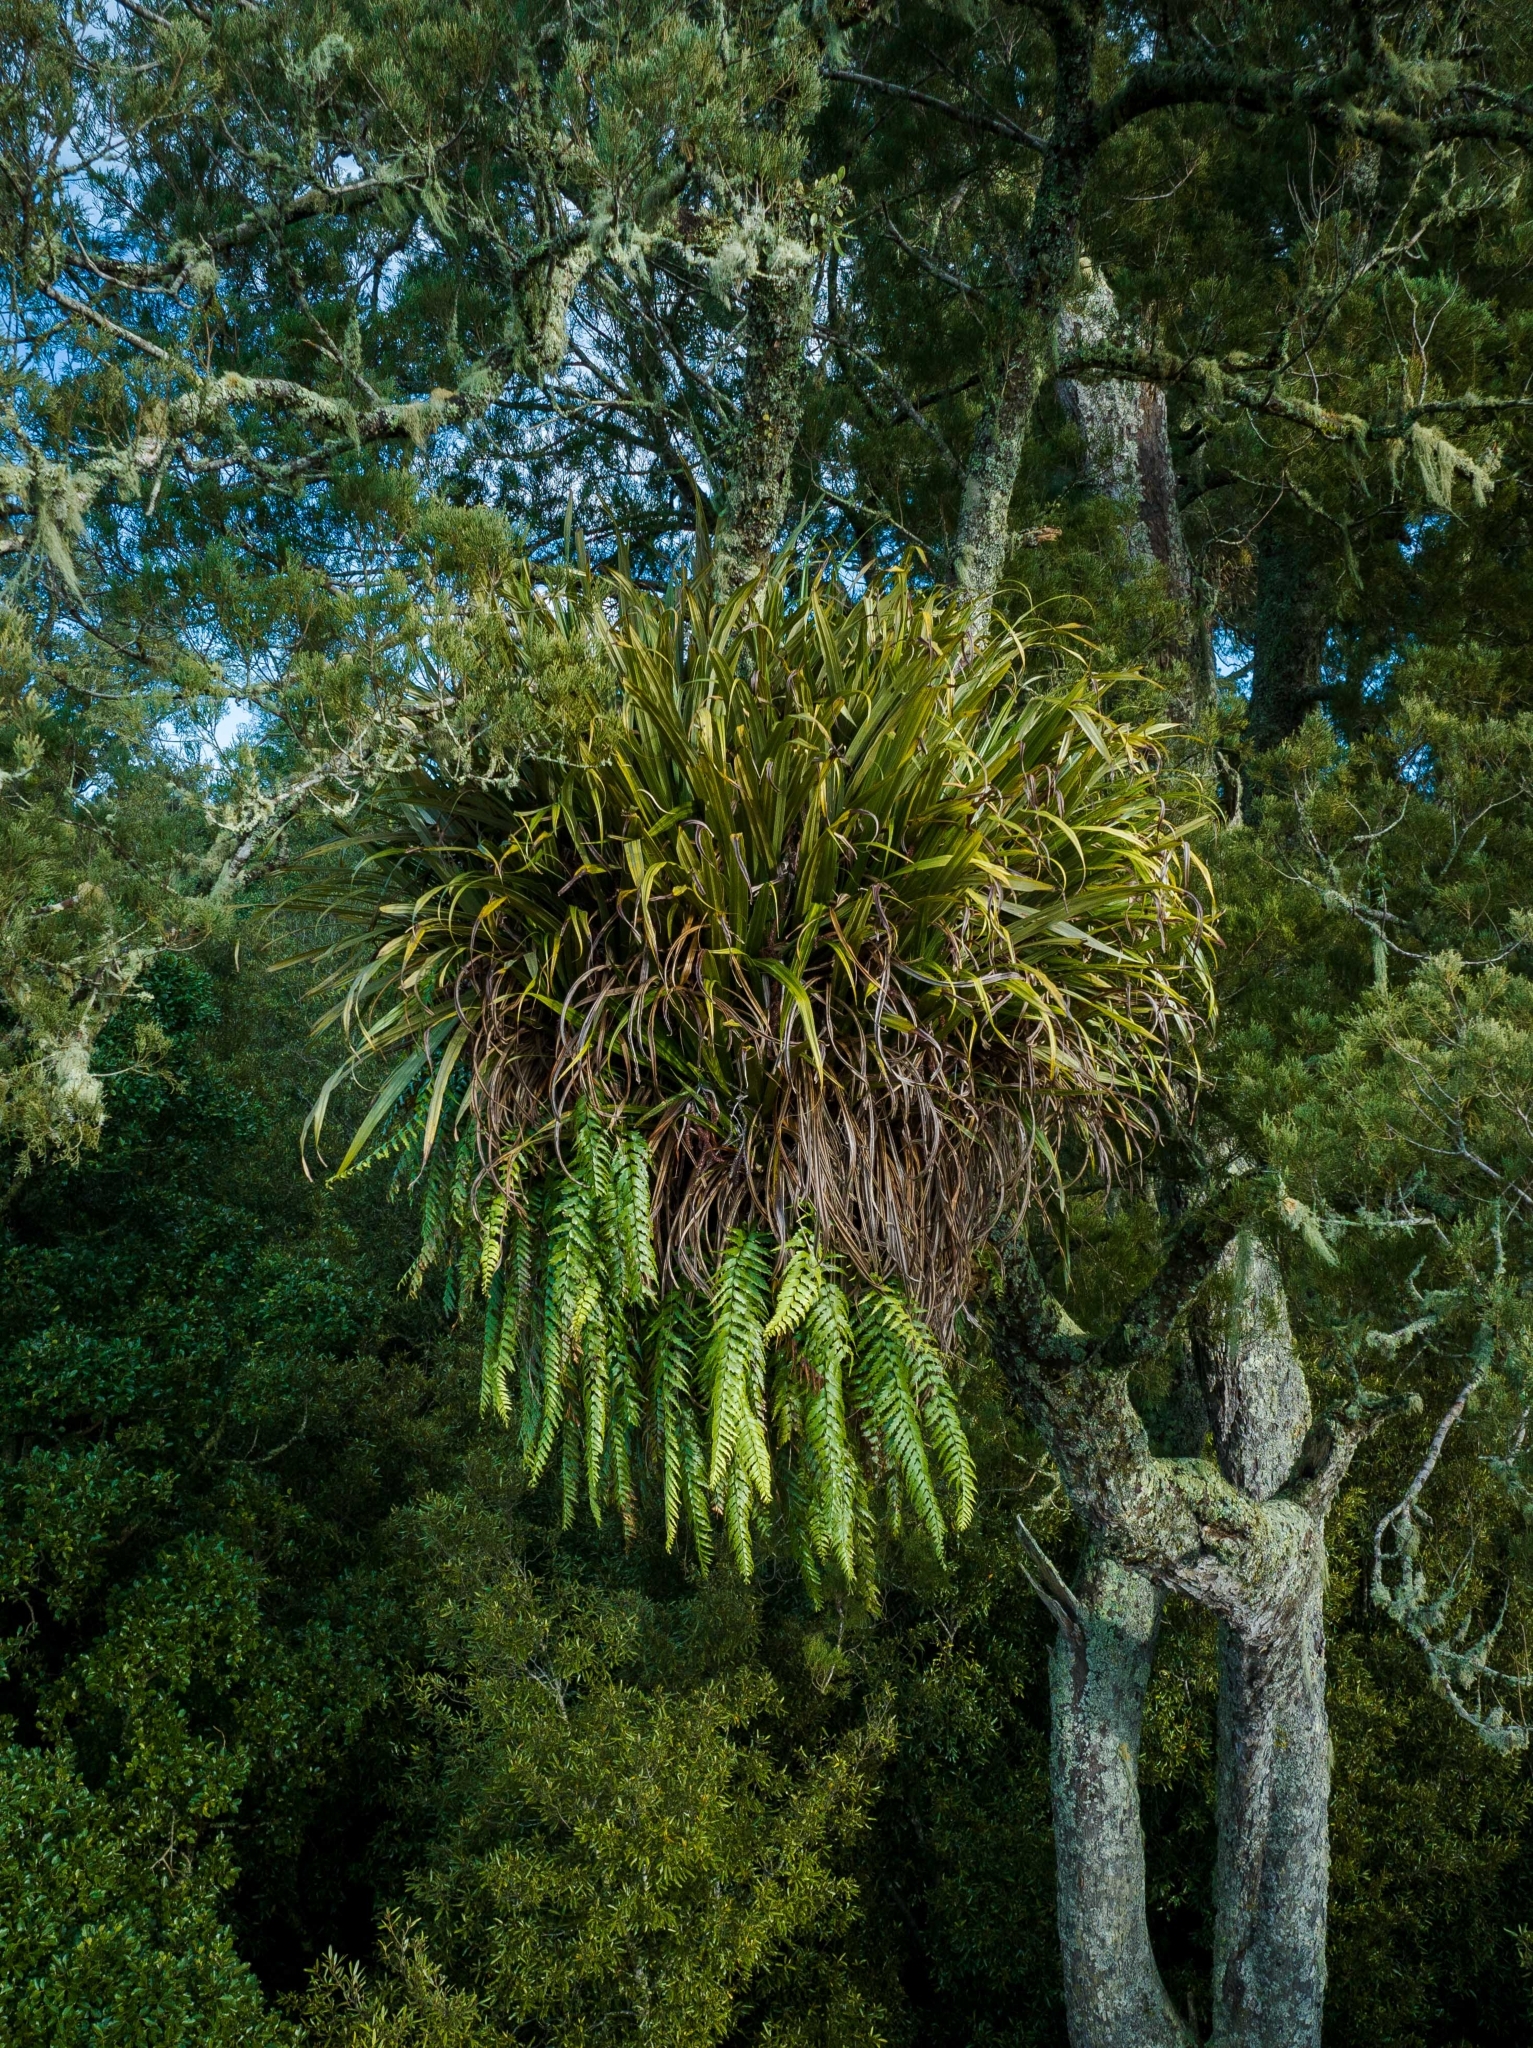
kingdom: Plantae
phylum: Tracheophyta
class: Liliopsida
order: Asparagales
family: Asteliaceae
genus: Astelia
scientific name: Astelia hastata
